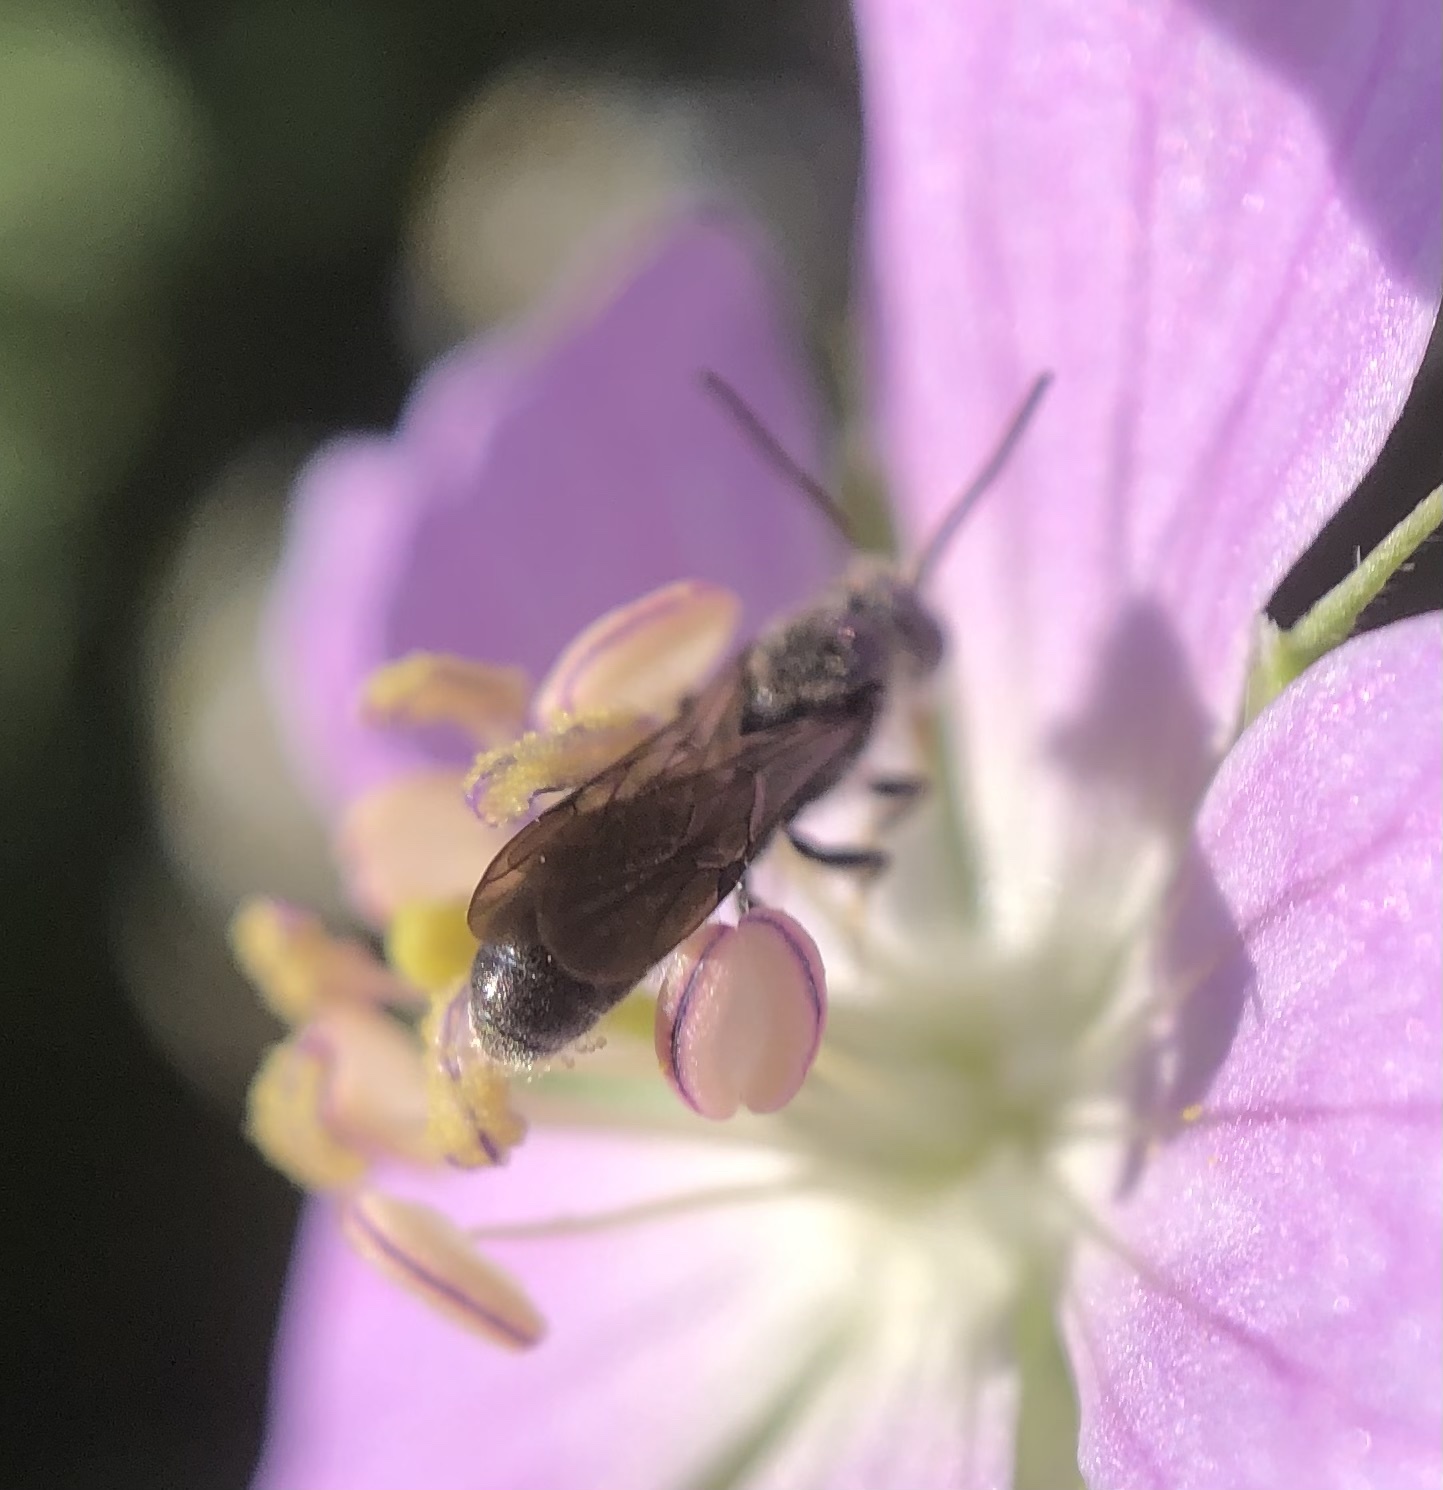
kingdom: Animalia
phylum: Arthropoda
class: Insecta
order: Hymenoptera
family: Megachilidae
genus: Chelostoma
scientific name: Chelostoma philadelphi
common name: Mock-orange scissor bee
